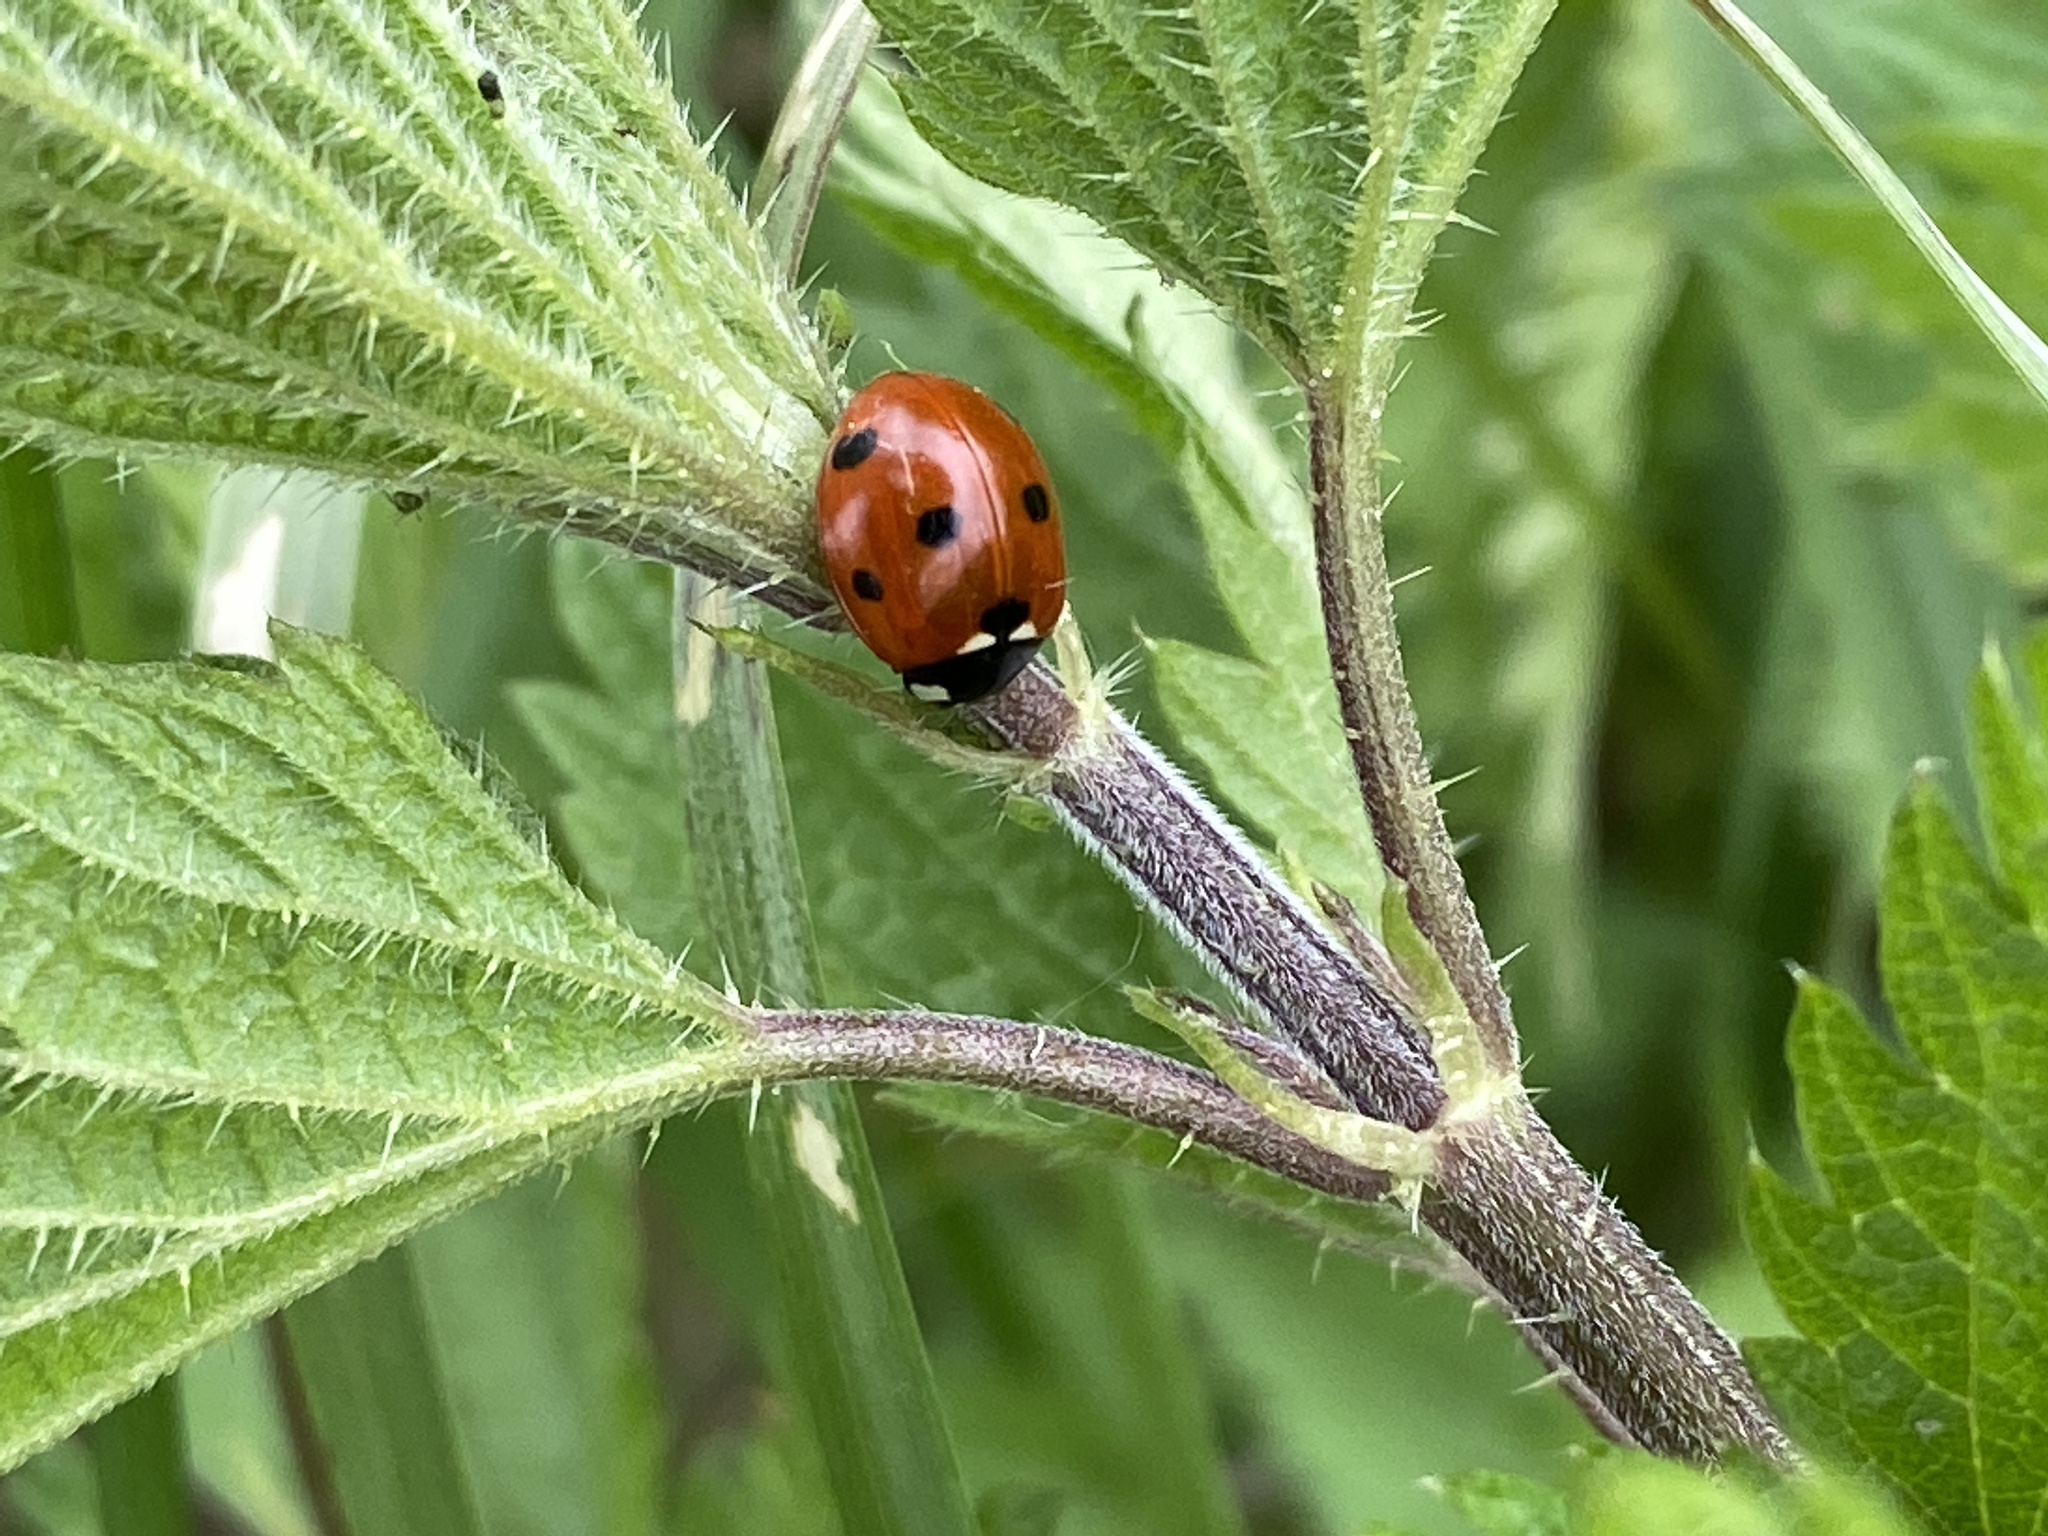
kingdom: Animalia
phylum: Arthropoda
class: Insecta
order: Coleoptera
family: Coccinellidae
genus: Coccinella
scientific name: Coccinella septempunctata
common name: Sevenspotted lady beetle
